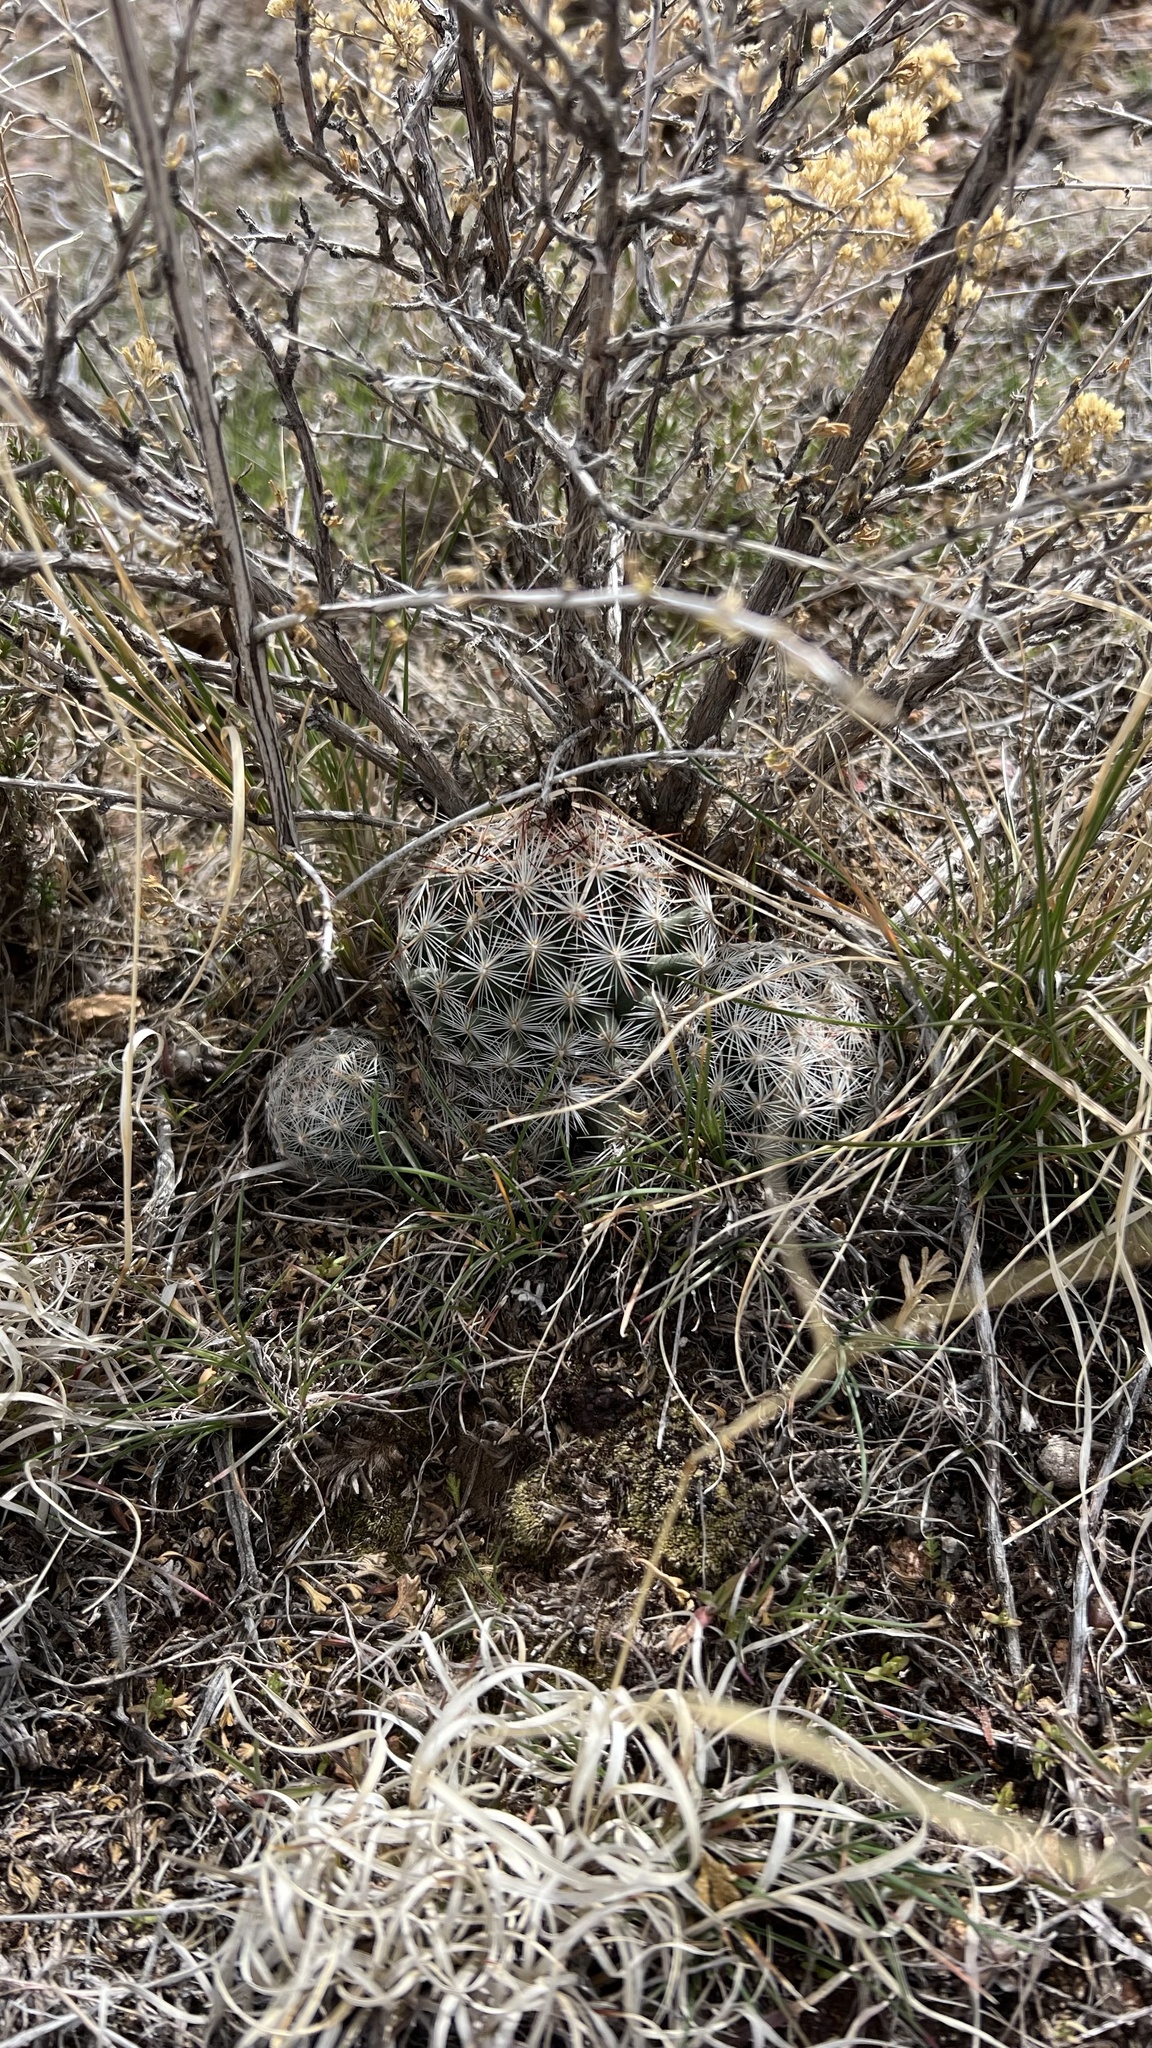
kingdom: Plantae
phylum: Tracheophyta
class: Magnoliopsida
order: Caryophyllales
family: Cactaceae
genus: Pelecyphora
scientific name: Pelecyphora vivipara
